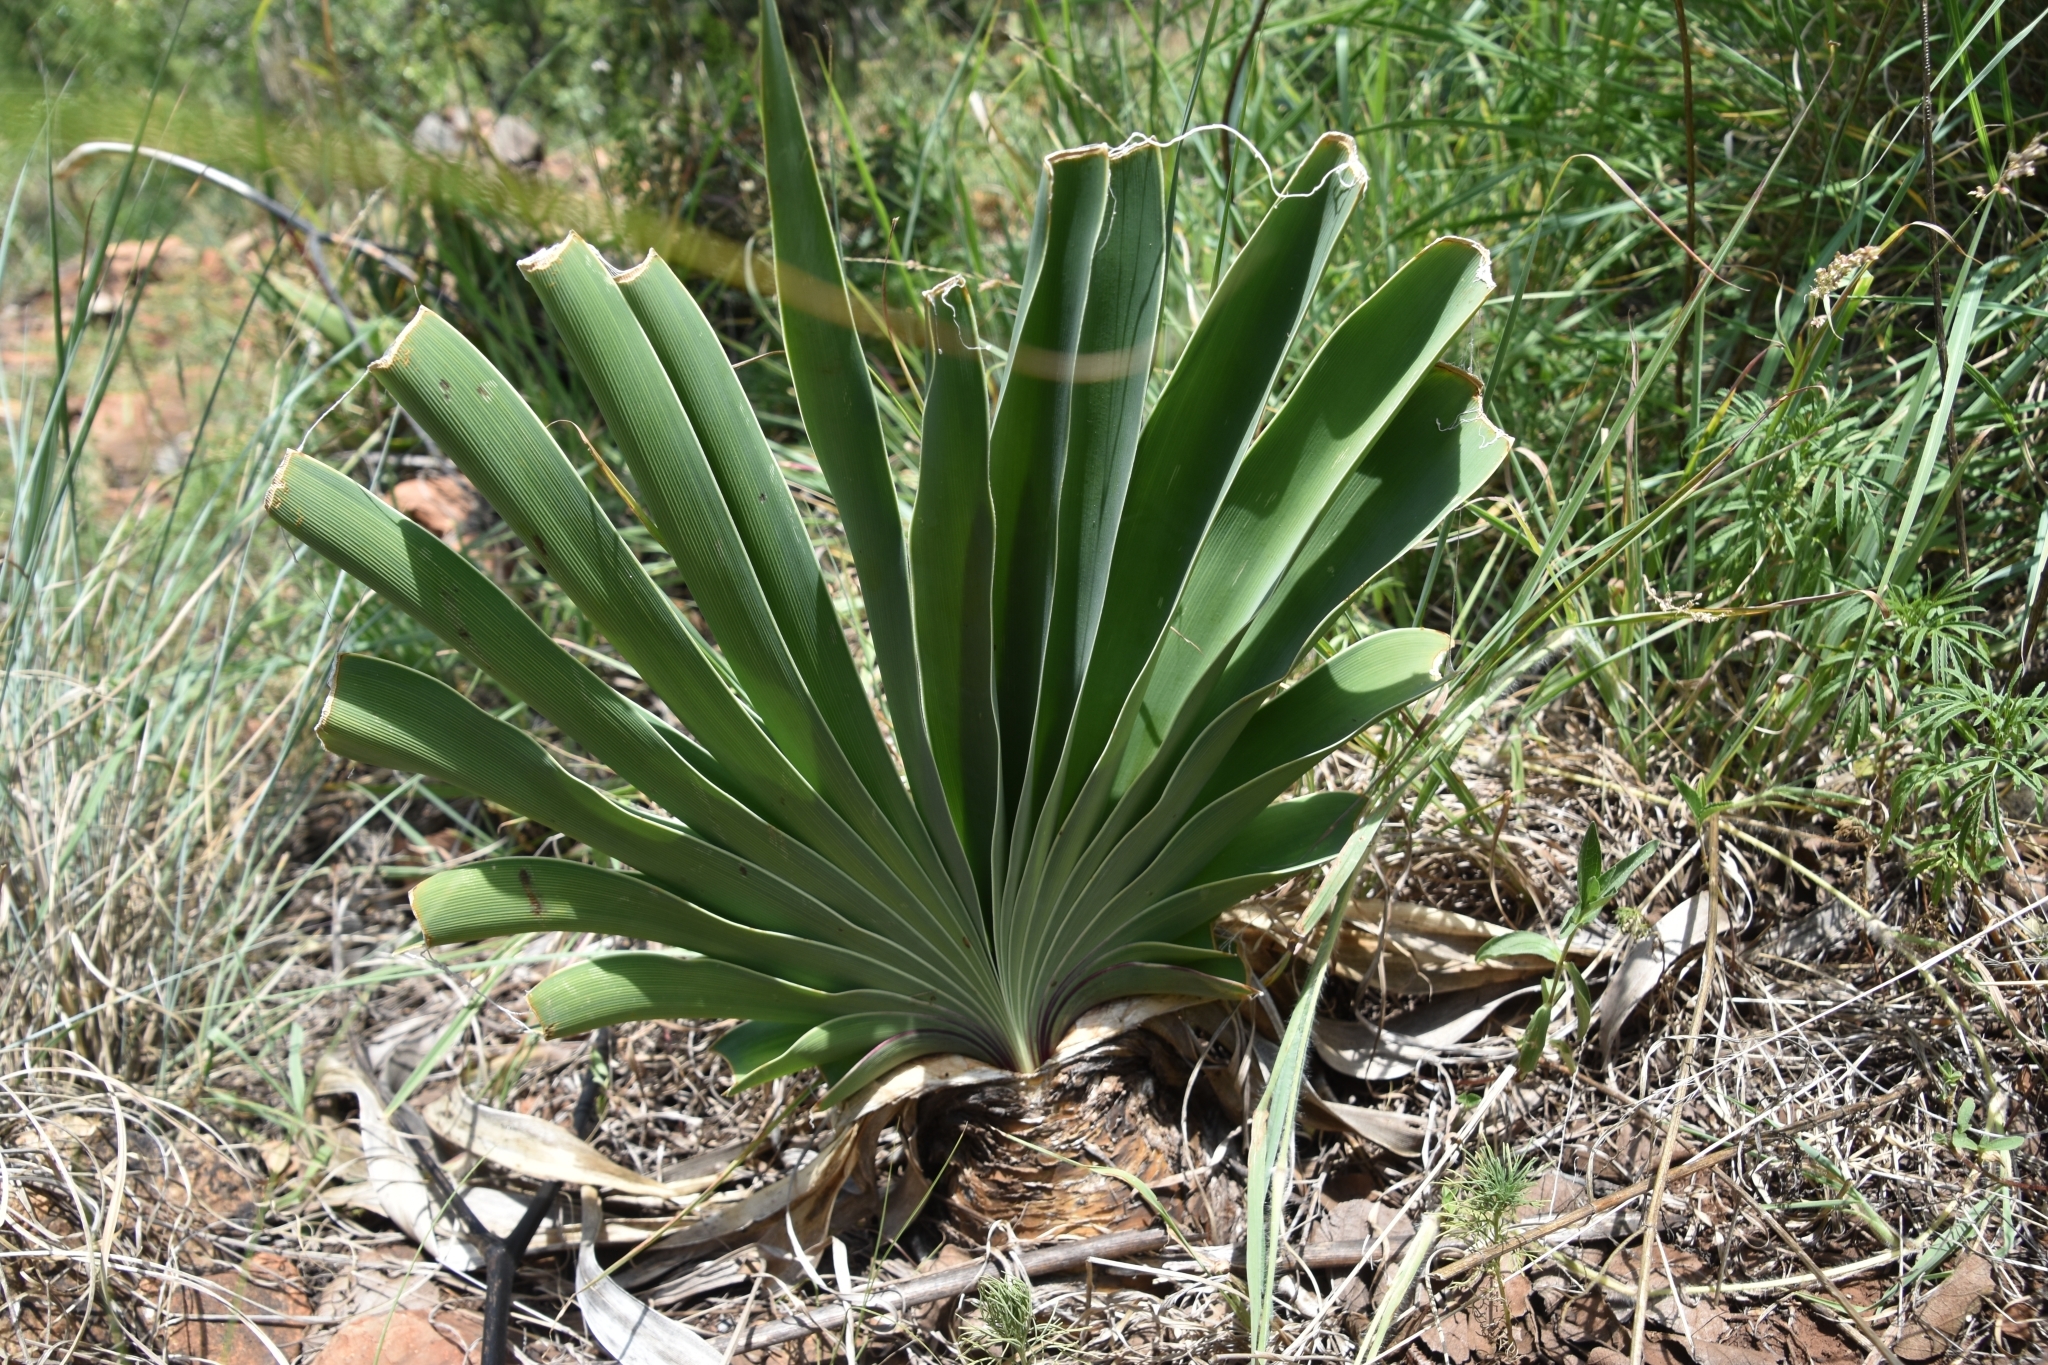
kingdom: Plantae
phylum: Tracheophyta
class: Liliopsida
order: Asparagales
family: Amaryllidaceae
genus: Boophone
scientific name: Boophone disticha
